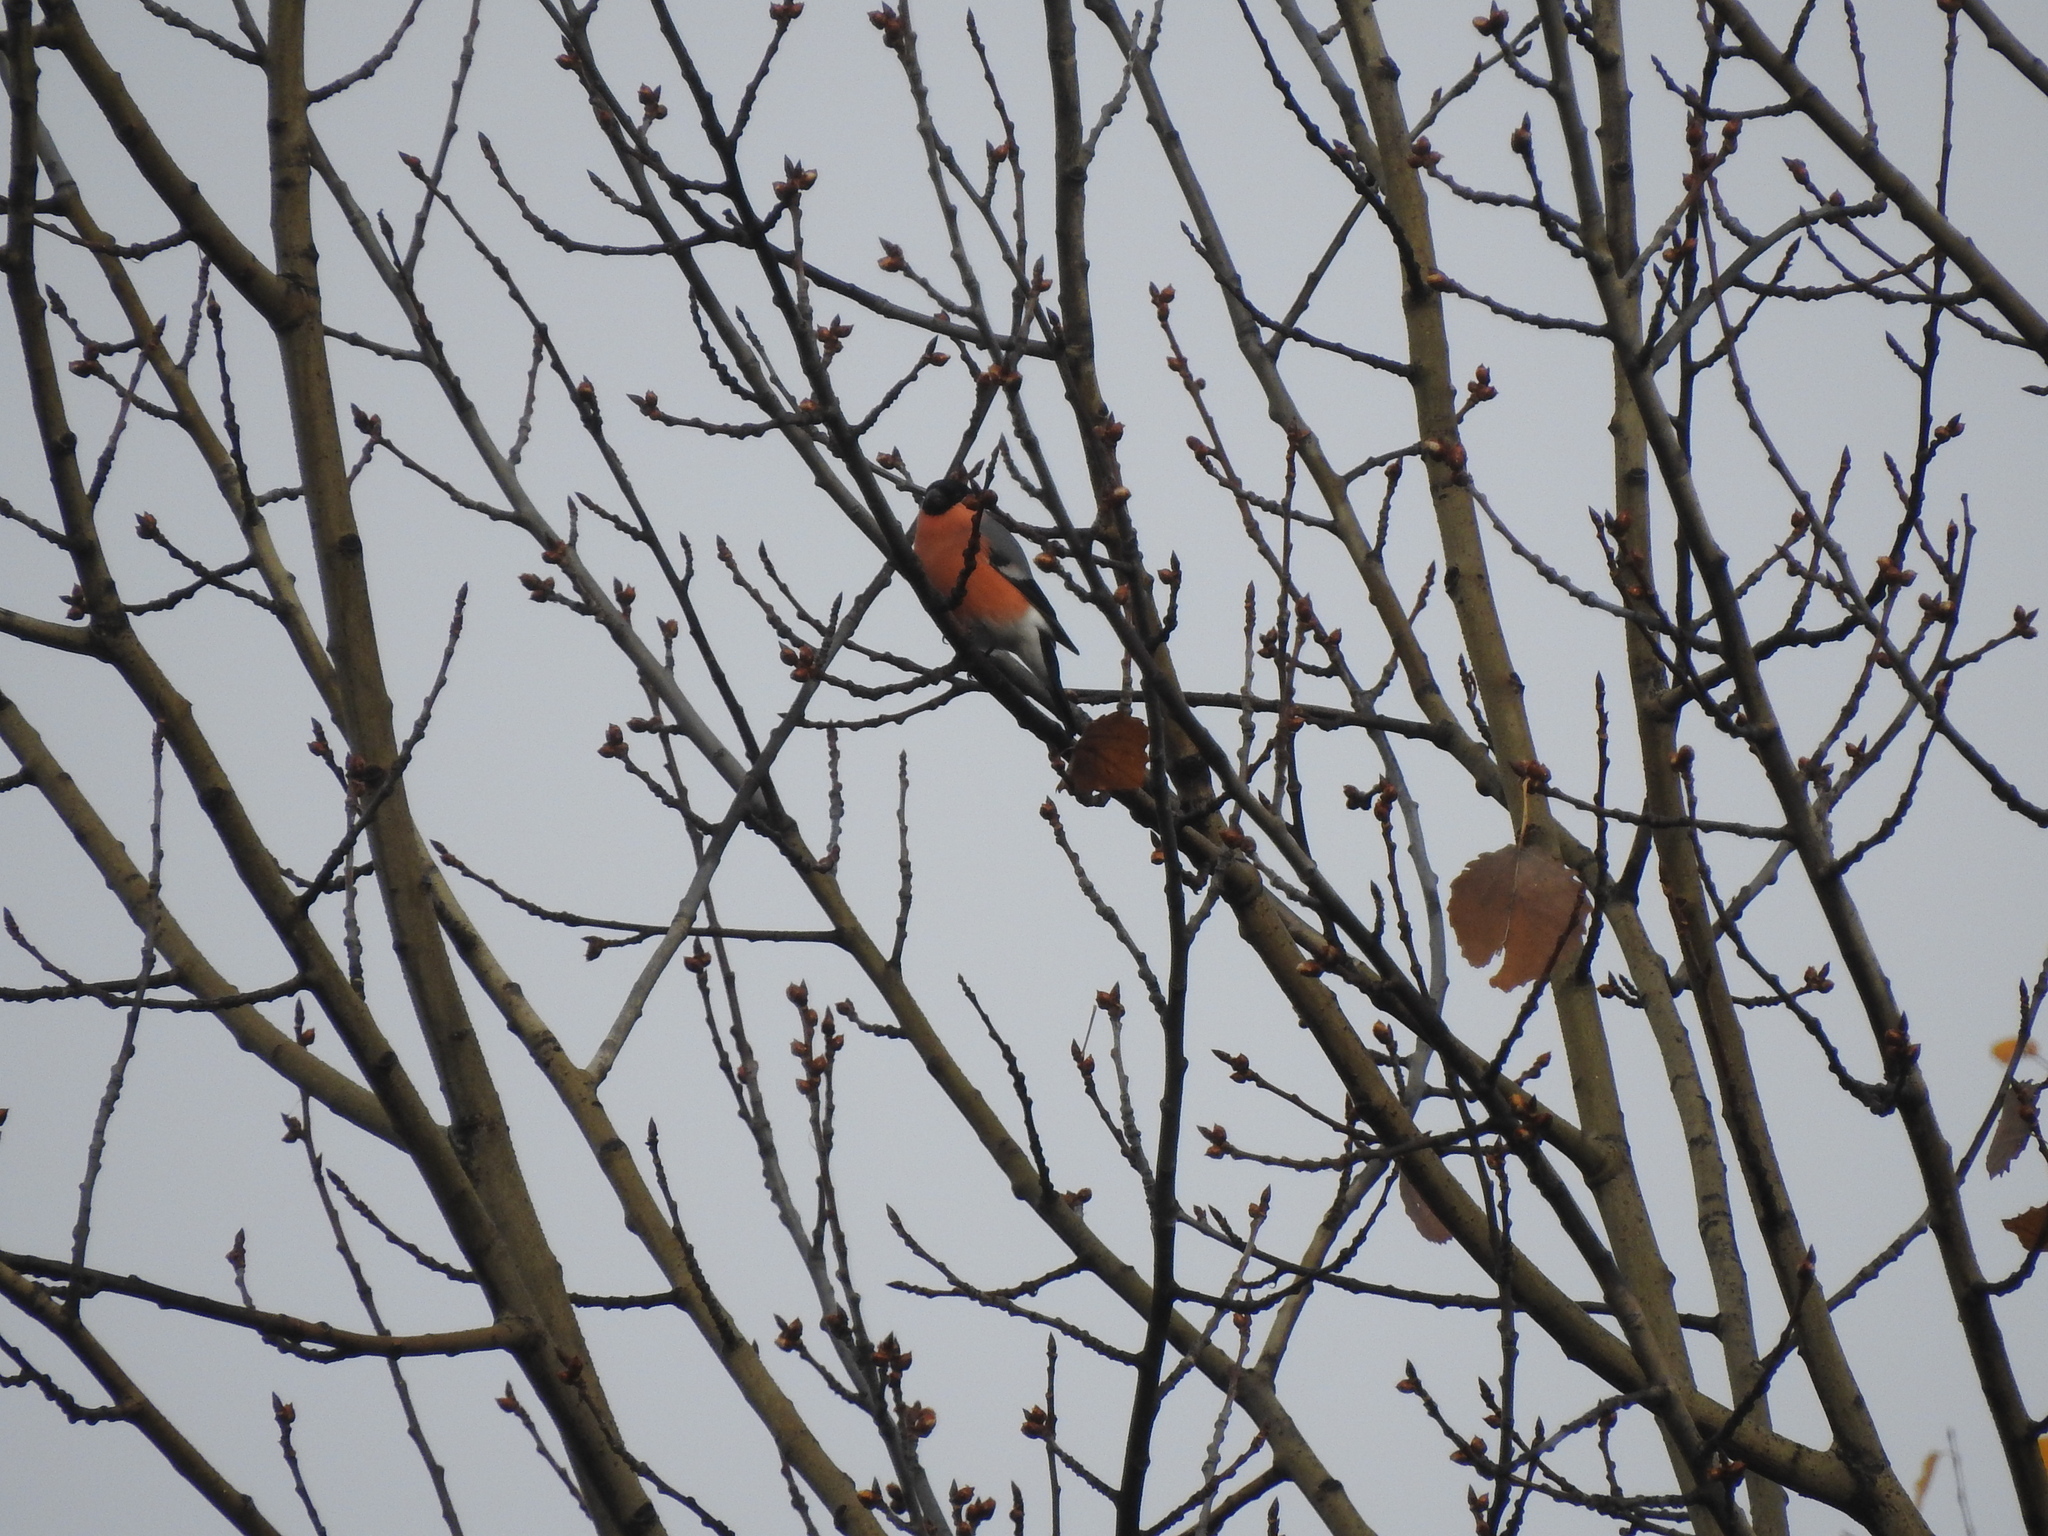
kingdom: Animalia
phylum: Chordata
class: Aves
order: Passeriformes
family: Fringillidae
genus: Pyrrhula
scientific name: Pyrrhula pyrrhula
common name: Eurasian bullfinch
